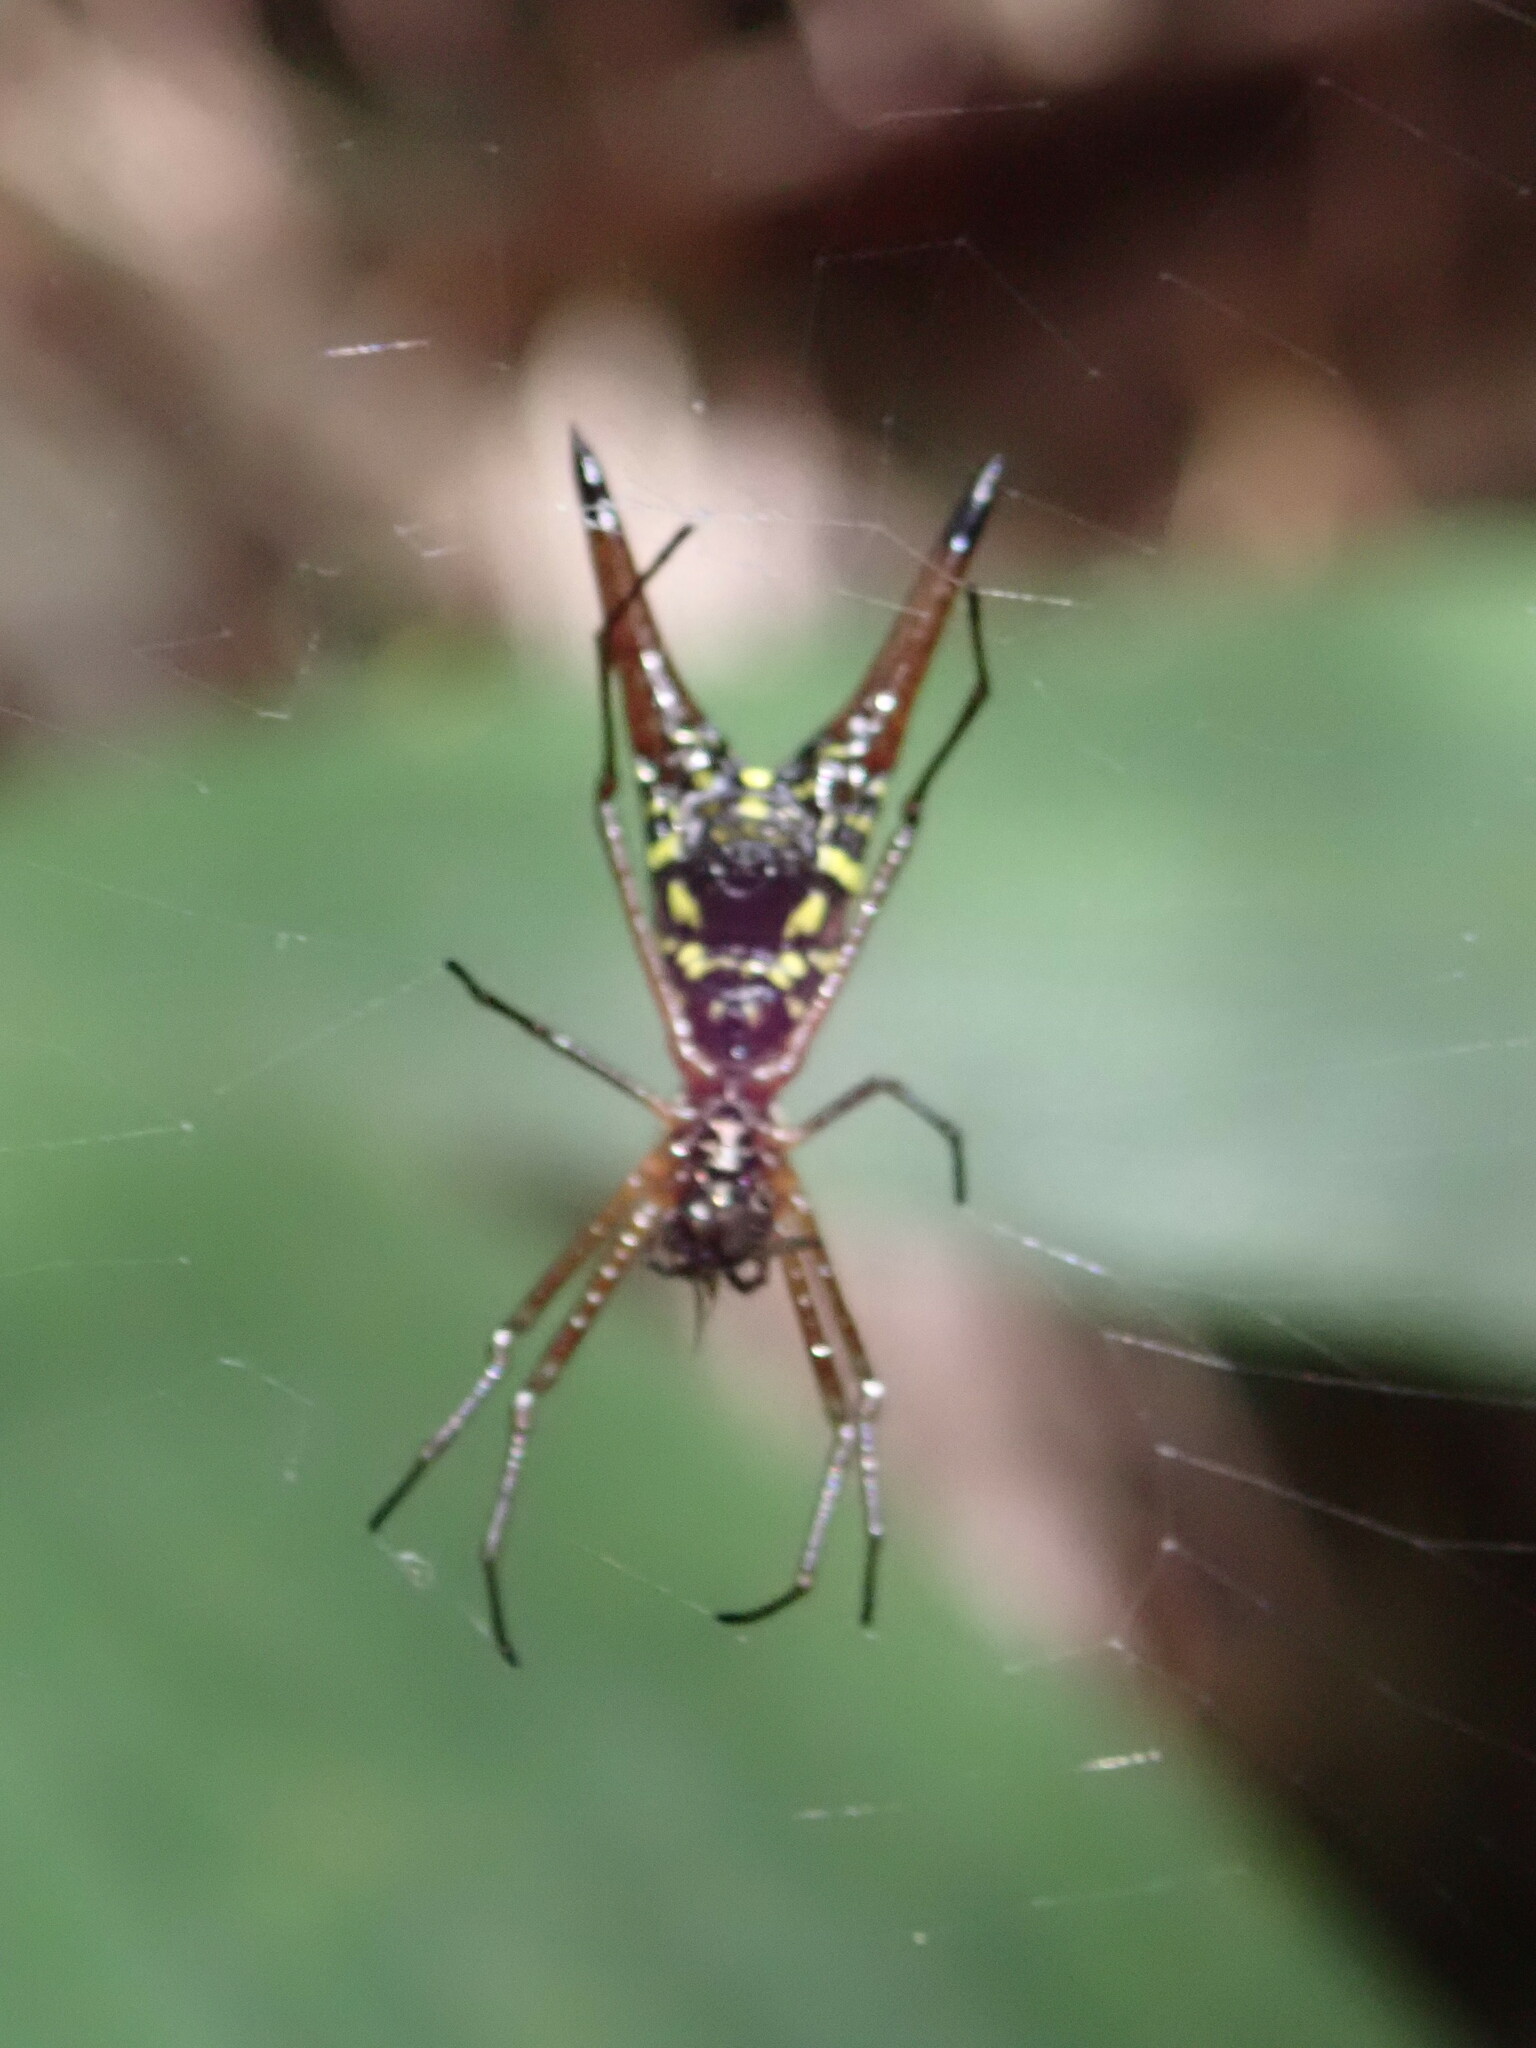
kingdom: Animalia
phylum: Arthropoda
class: Arachnida
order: Araneae
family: Araneidae
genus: Micrathena
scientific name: Micrathena brevipes
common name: Orb weavers
